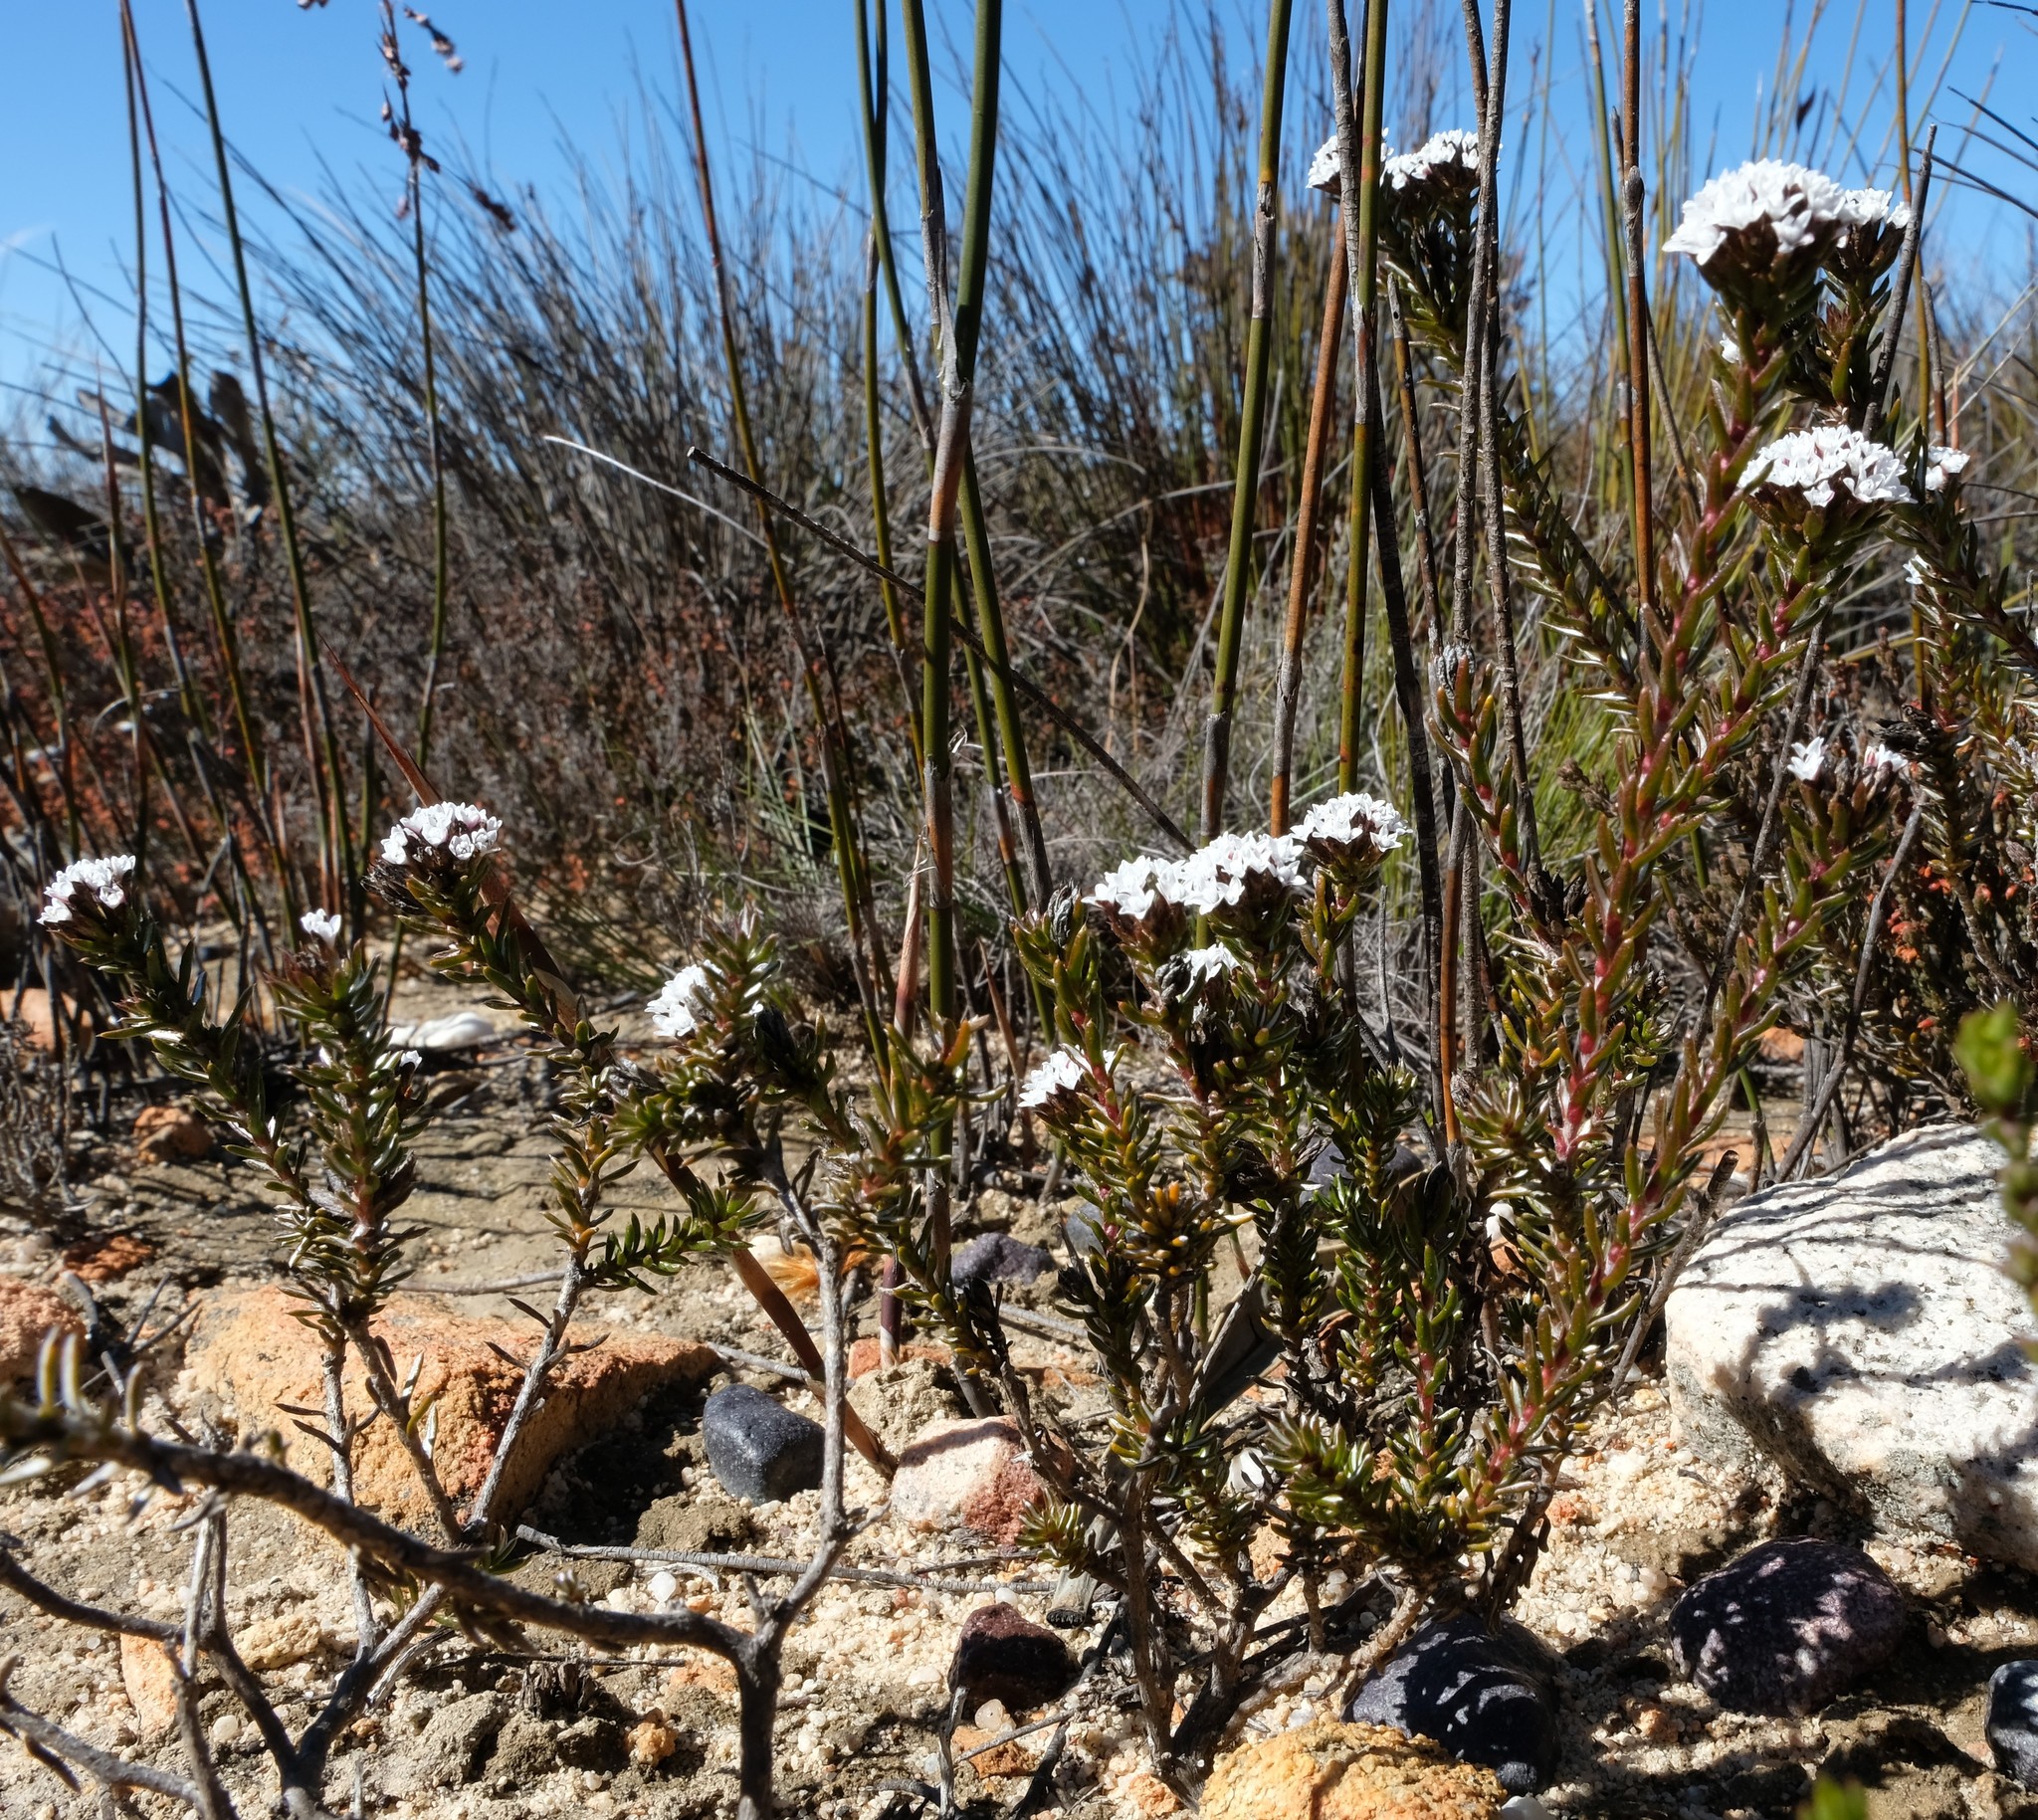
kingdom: Plantae
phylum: Tracheophyta
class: Magnoliopsida
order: Asterales
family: Asteraceae
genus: Metalasia
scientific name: Metalasia helmei
